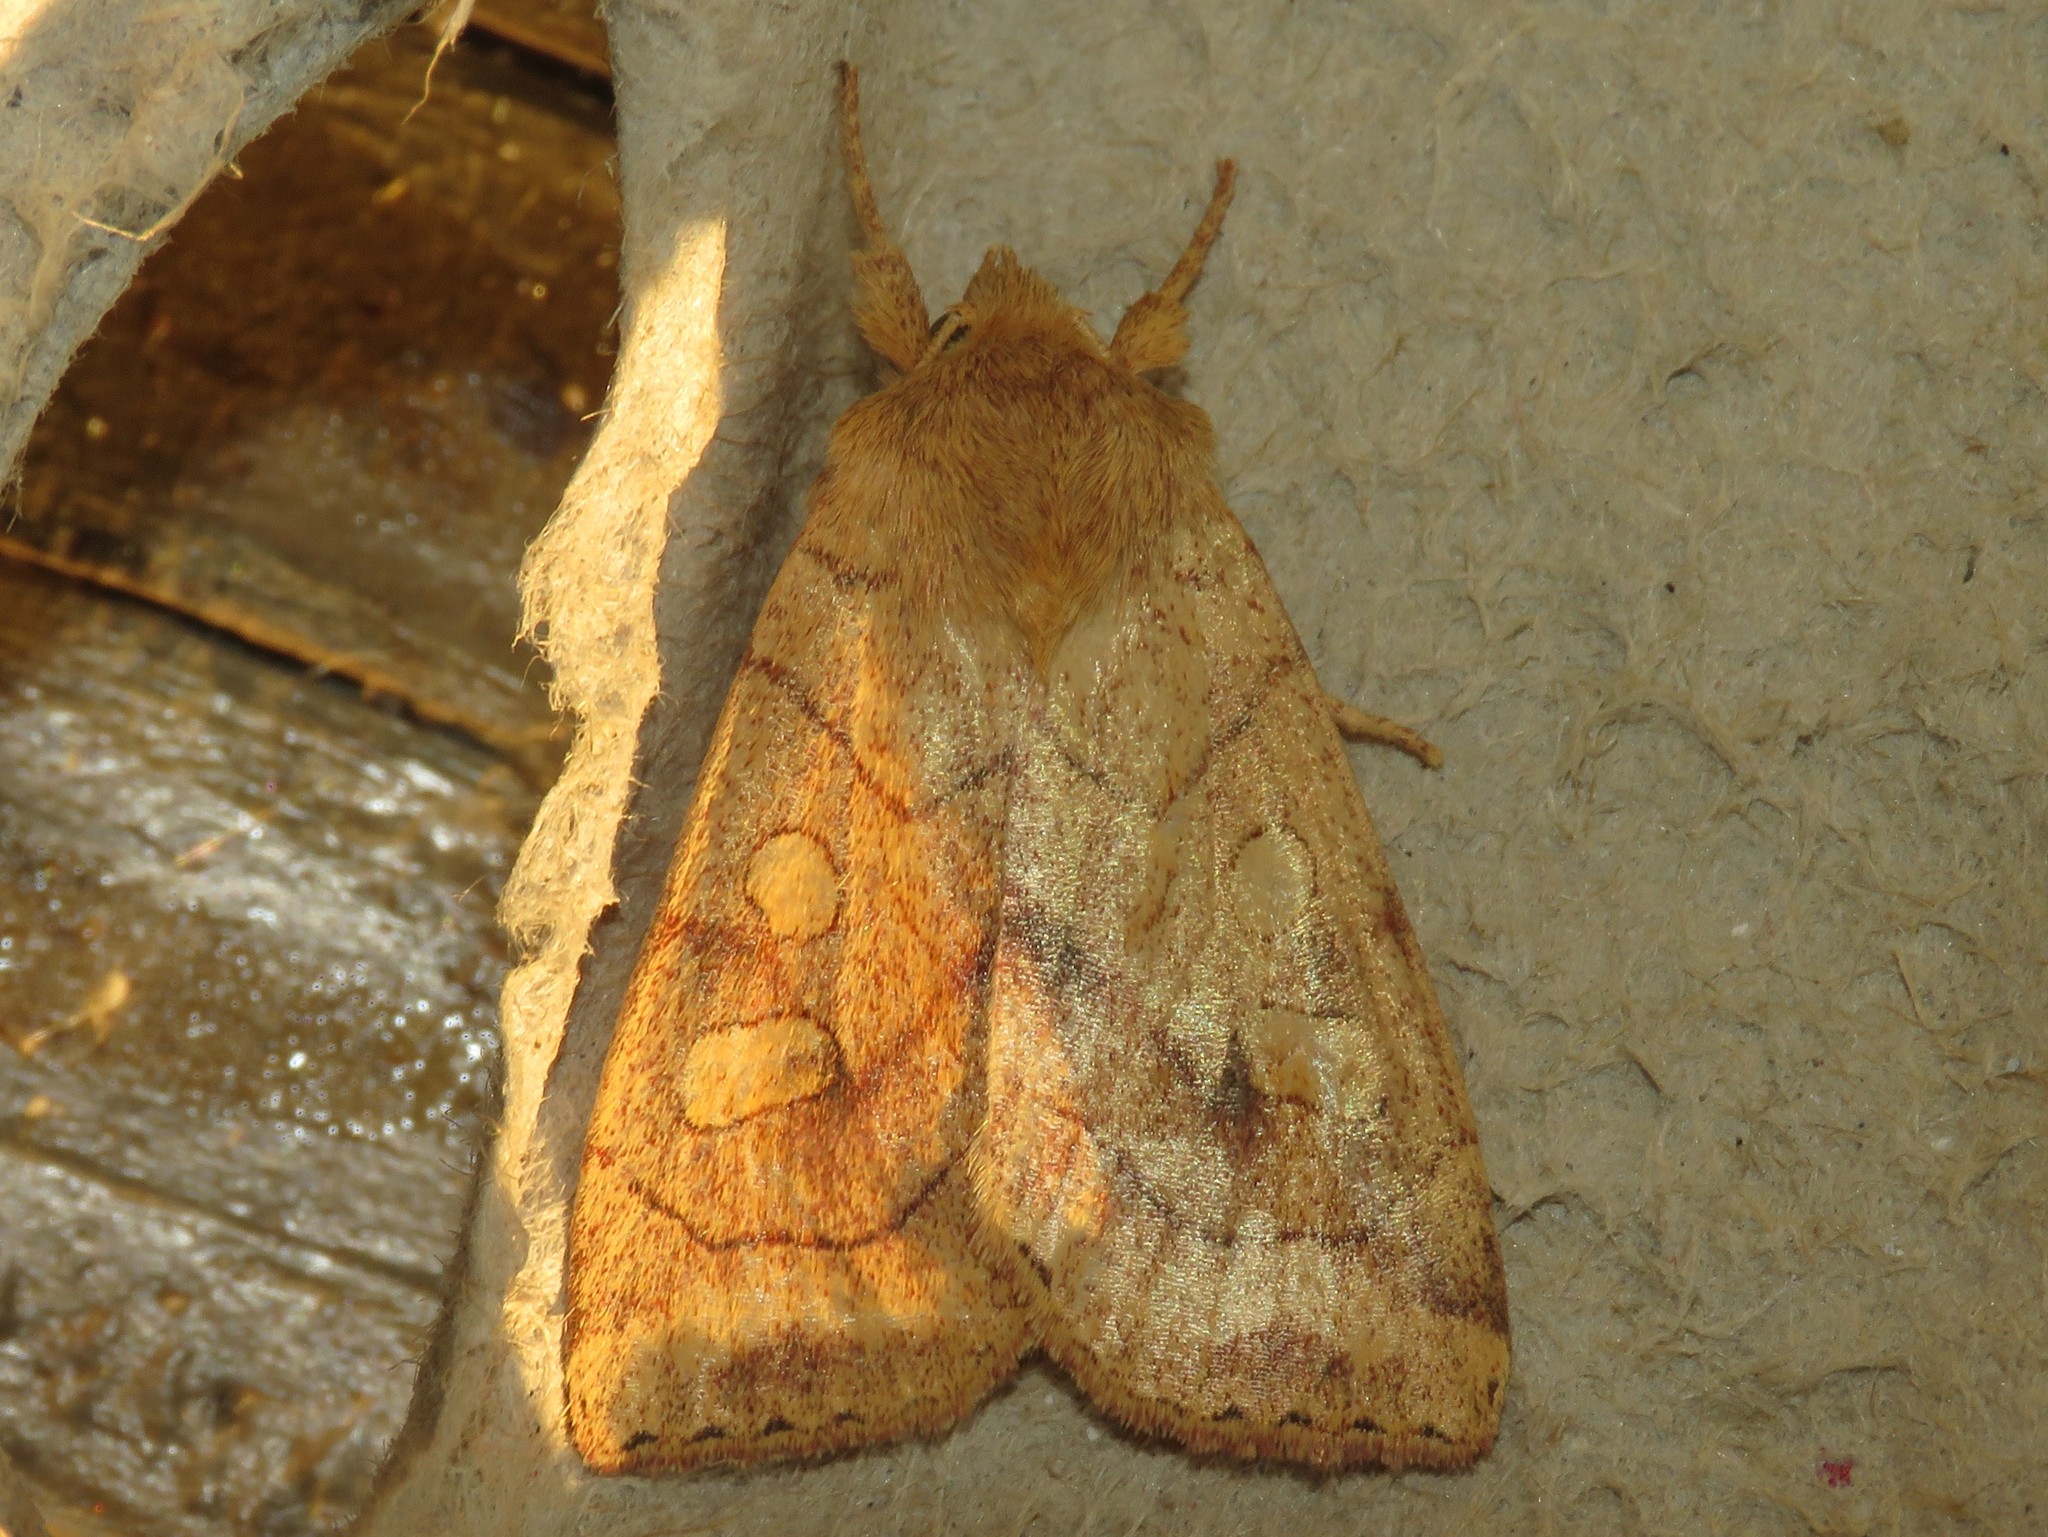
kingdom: Animalia
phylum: Arthropoda
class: Insecta
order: Lepidoptera
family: Noctuidae
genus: Enargia
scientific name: Enargia decolor
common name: Aspen twoleaf tier moth
